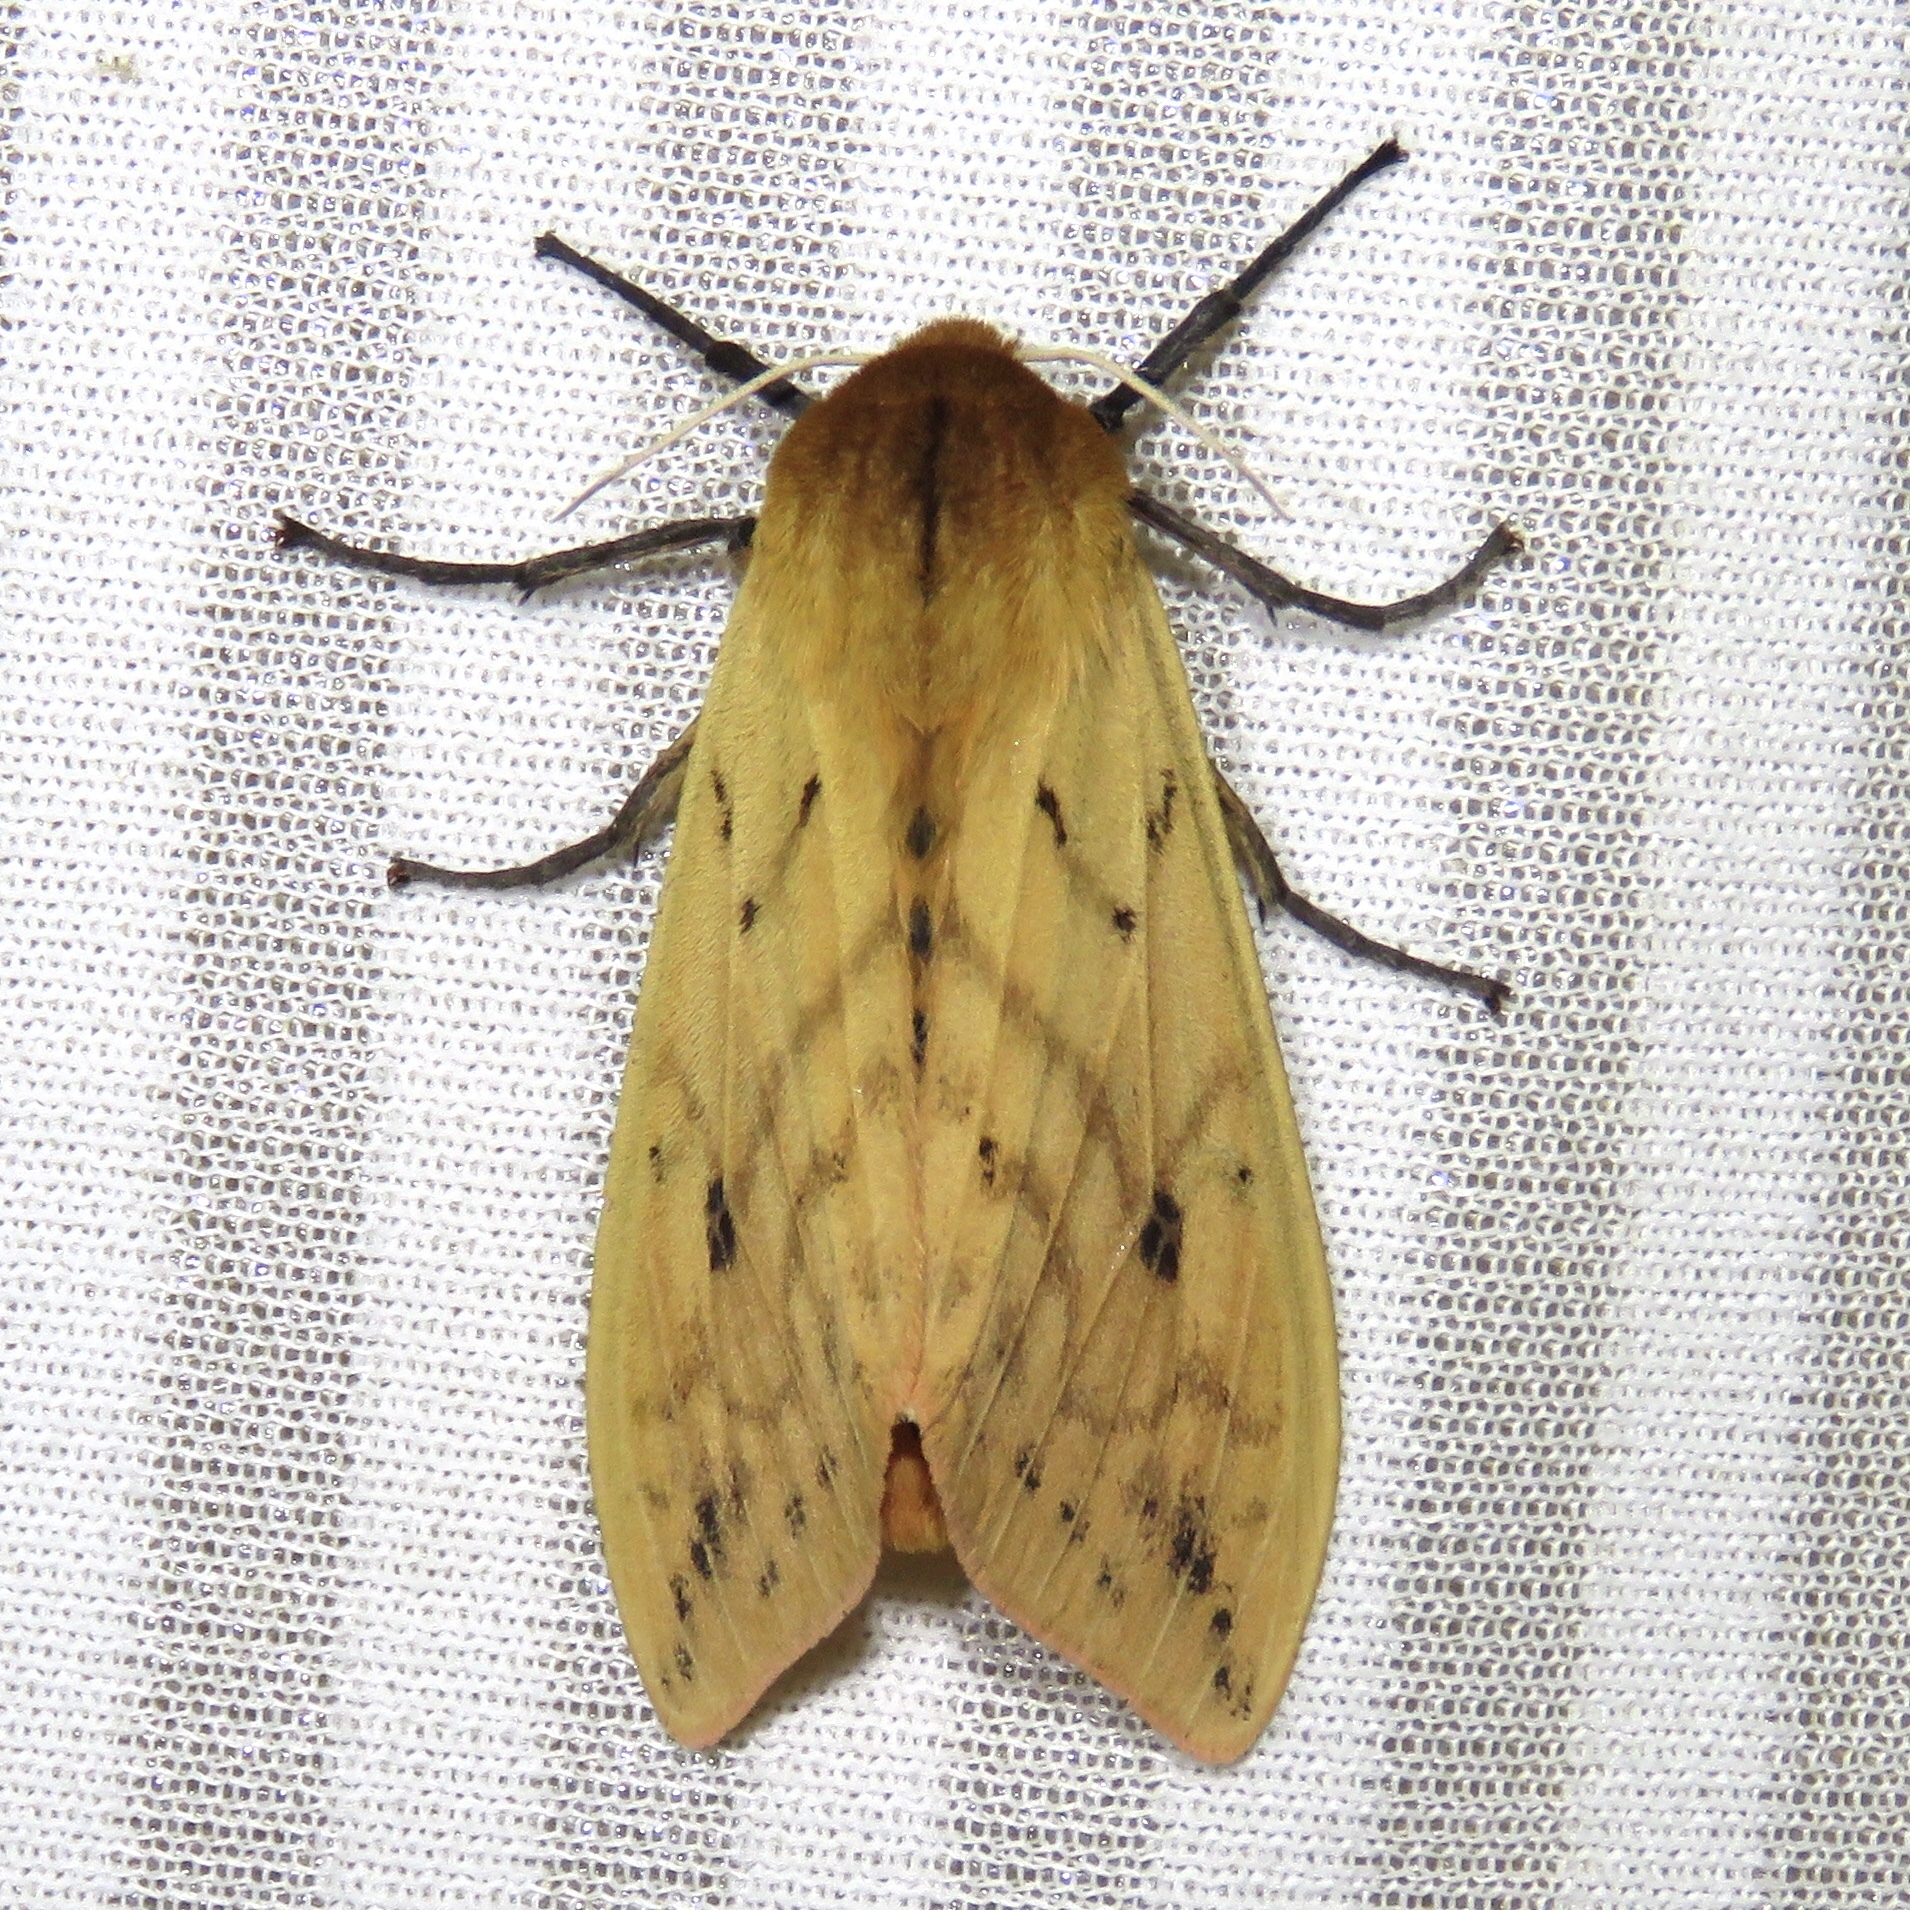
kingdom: Animalia
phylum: Arthropoda
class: Insecta
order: Lepidoptera
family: Erebidae
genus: Pyrrharctia
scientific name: Pyrrharctia isabella
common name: Isabella tiger moth
